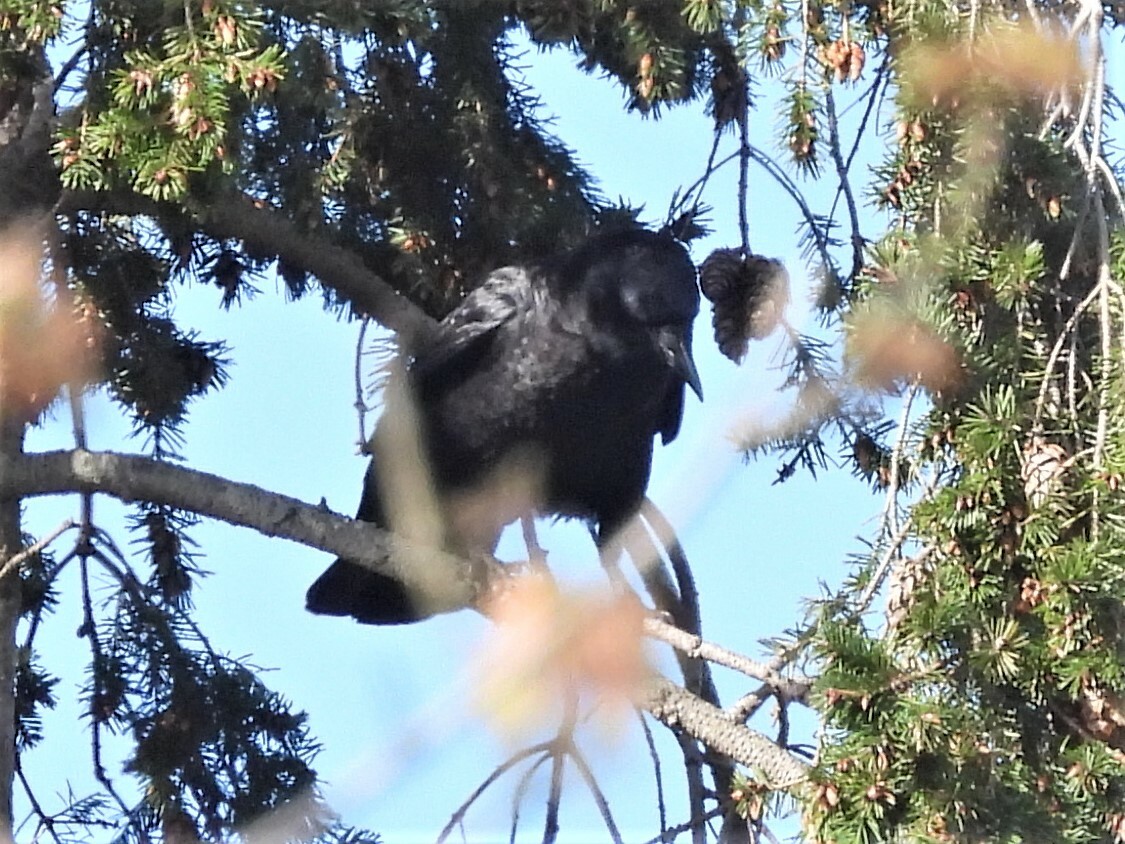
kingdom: Animalia
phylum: Chordata
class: Aves
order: Passeriformes
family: Corvidae
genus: Corvus
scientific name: Corvus brachyrhynchos
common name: American crow
